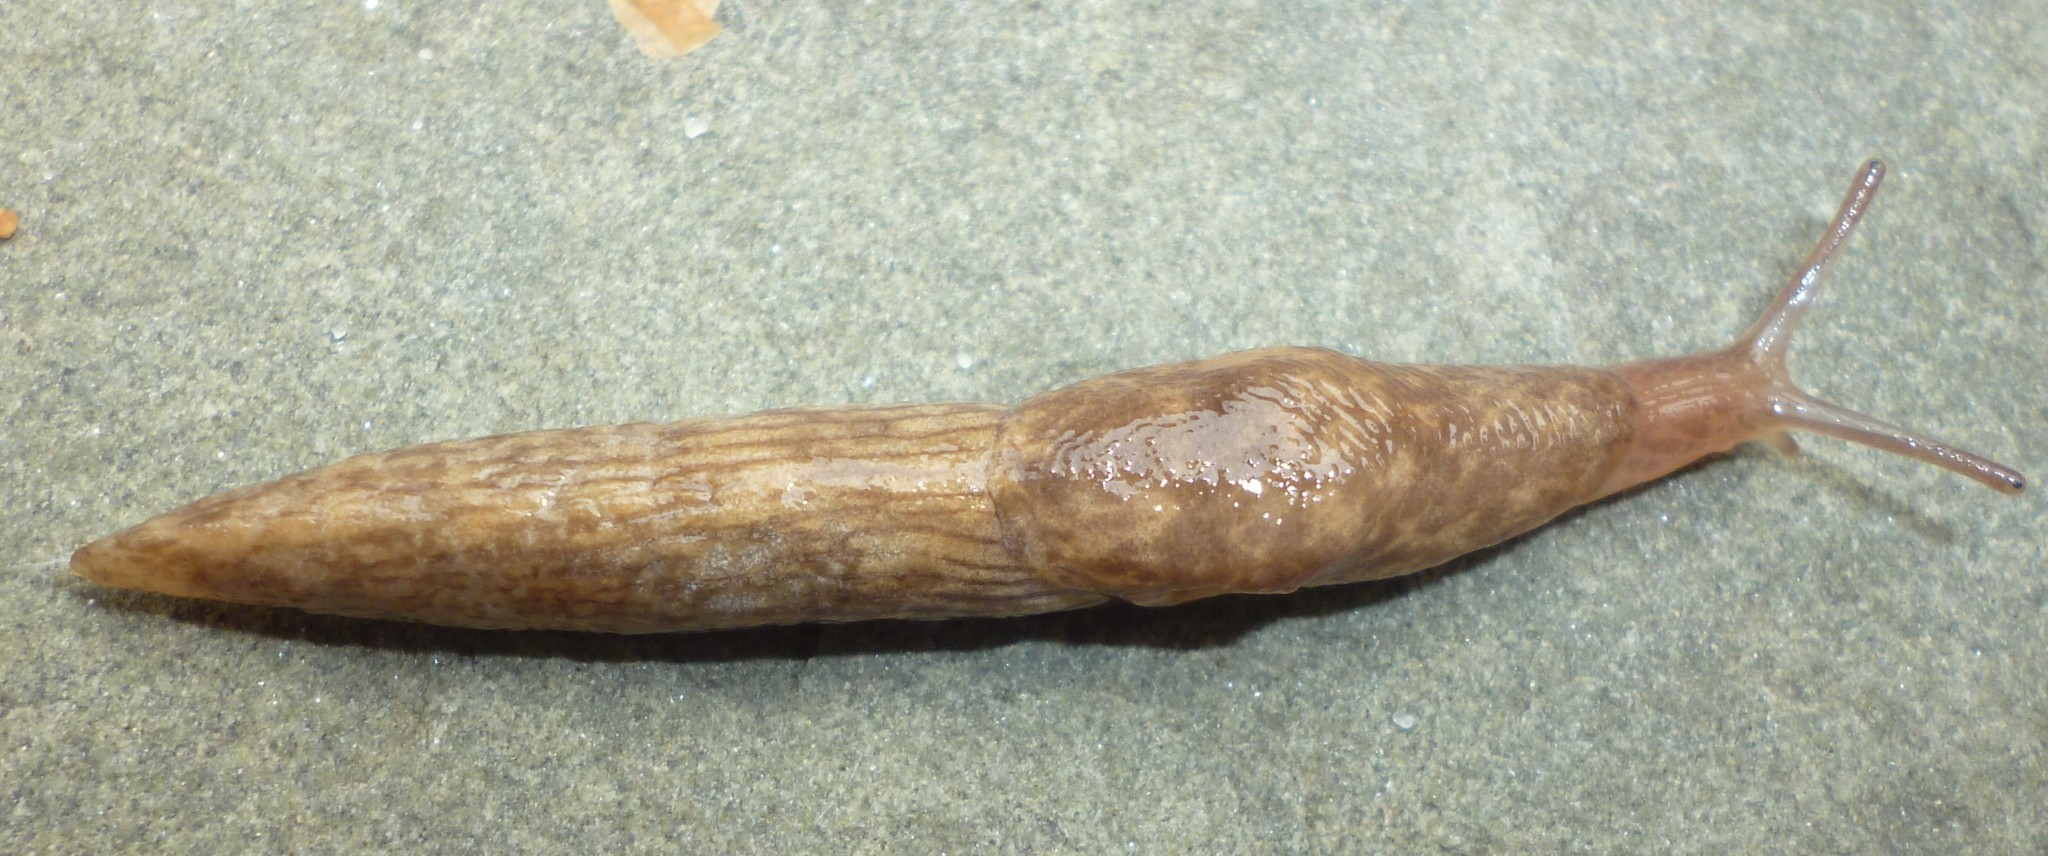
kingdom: Animalia
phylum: Mollusca
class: Gastropoda
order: Stylommatophora
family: Agriolimacidae
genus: Deroceras
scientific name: Deroceras reticulatum
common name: Gray field slug
